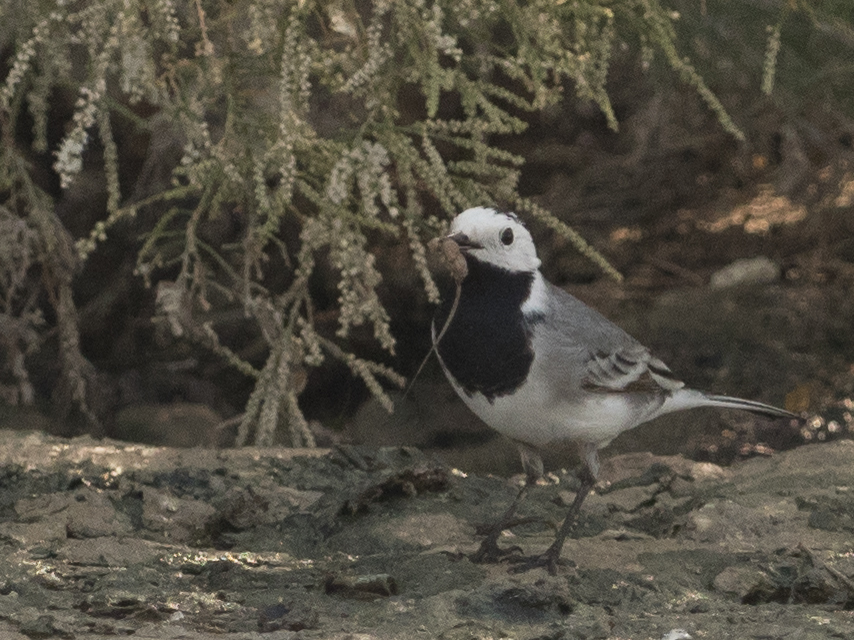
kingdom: Animalia
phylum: Chordata
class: Aves
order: Passeriformes
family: Motacillidae
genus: Motacilla
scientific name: Motacilla alba
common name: White wagtail
